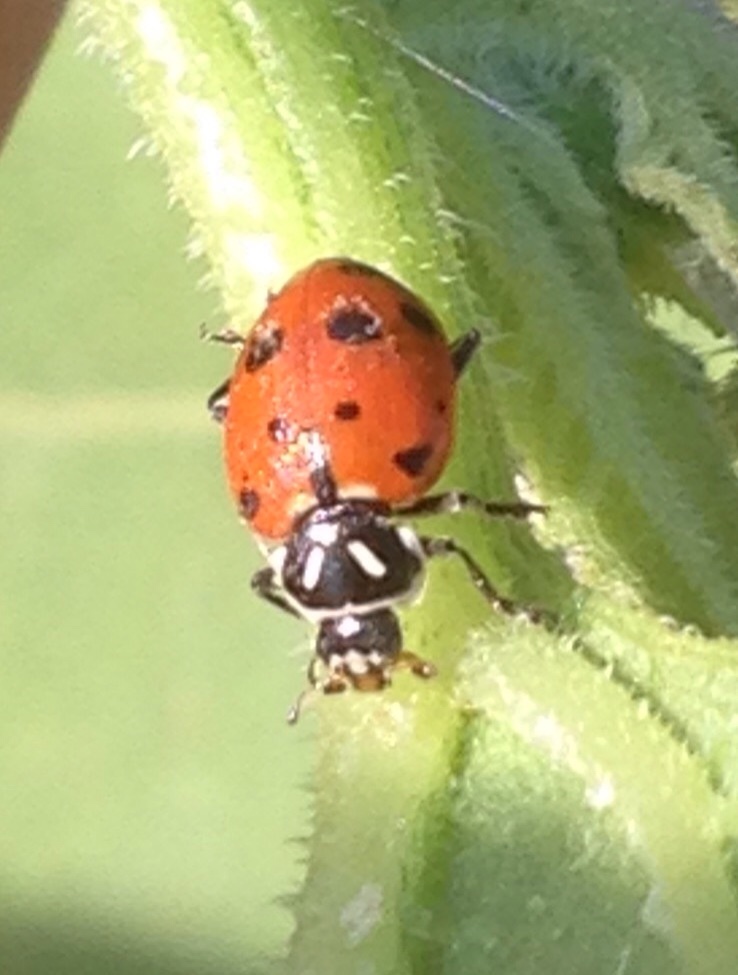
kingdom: Animalia
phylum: Arthropoda
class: Insecta
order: Coleoptera
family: Coccinellidae
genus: Hippodamia
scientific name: Hippodamia convergens
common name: Convergent lady beetle
